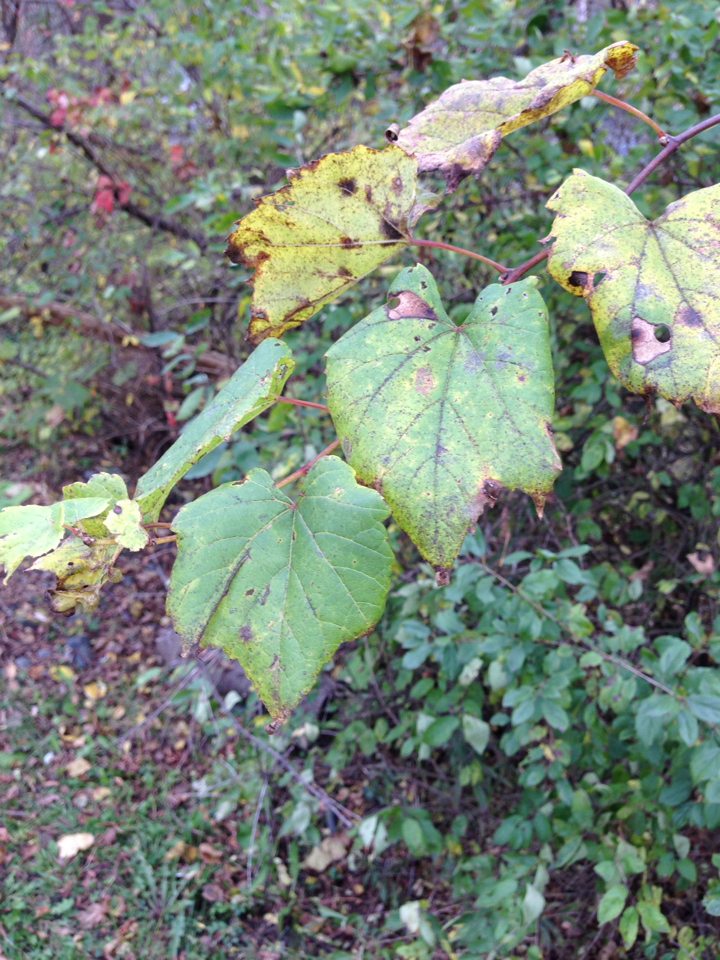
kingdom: Plantae
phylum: Tracheophyta
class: Magnoliopsida
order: Vitales
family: Vitaceae
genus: Vitis
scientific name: Vitis riparia
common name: Frost grape
